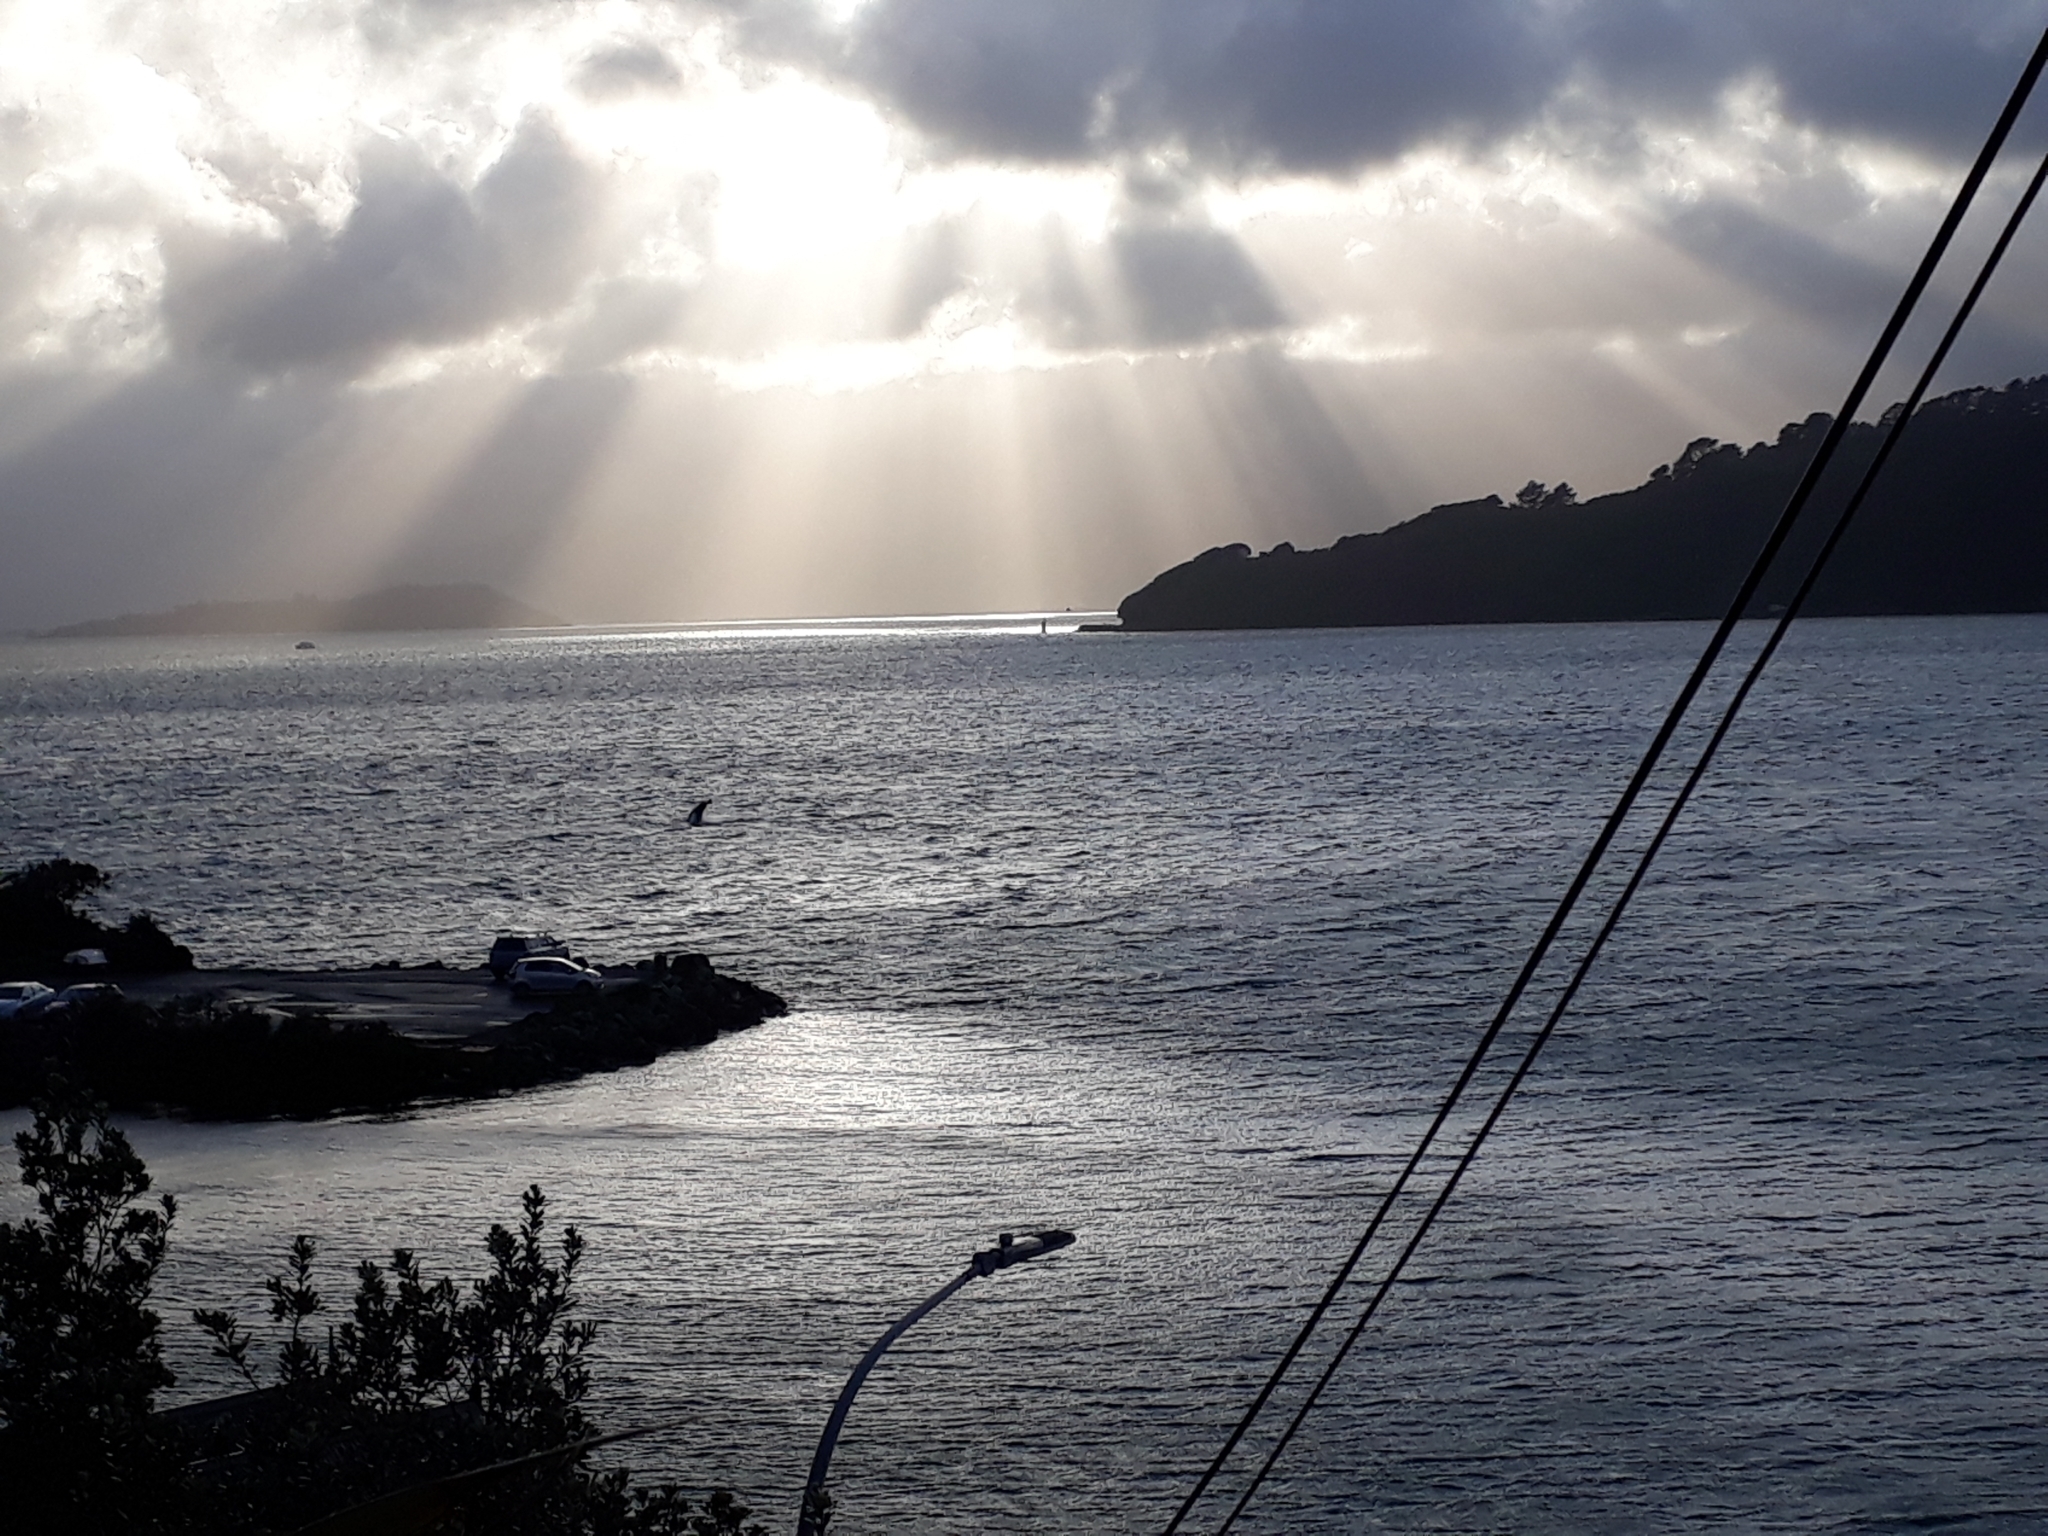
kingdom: Animalia
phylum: Chordata
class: Mammalia
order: Cetacea
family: Delphinidae
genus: Orcinus
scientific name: Orcinus orca
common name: Killer whale
